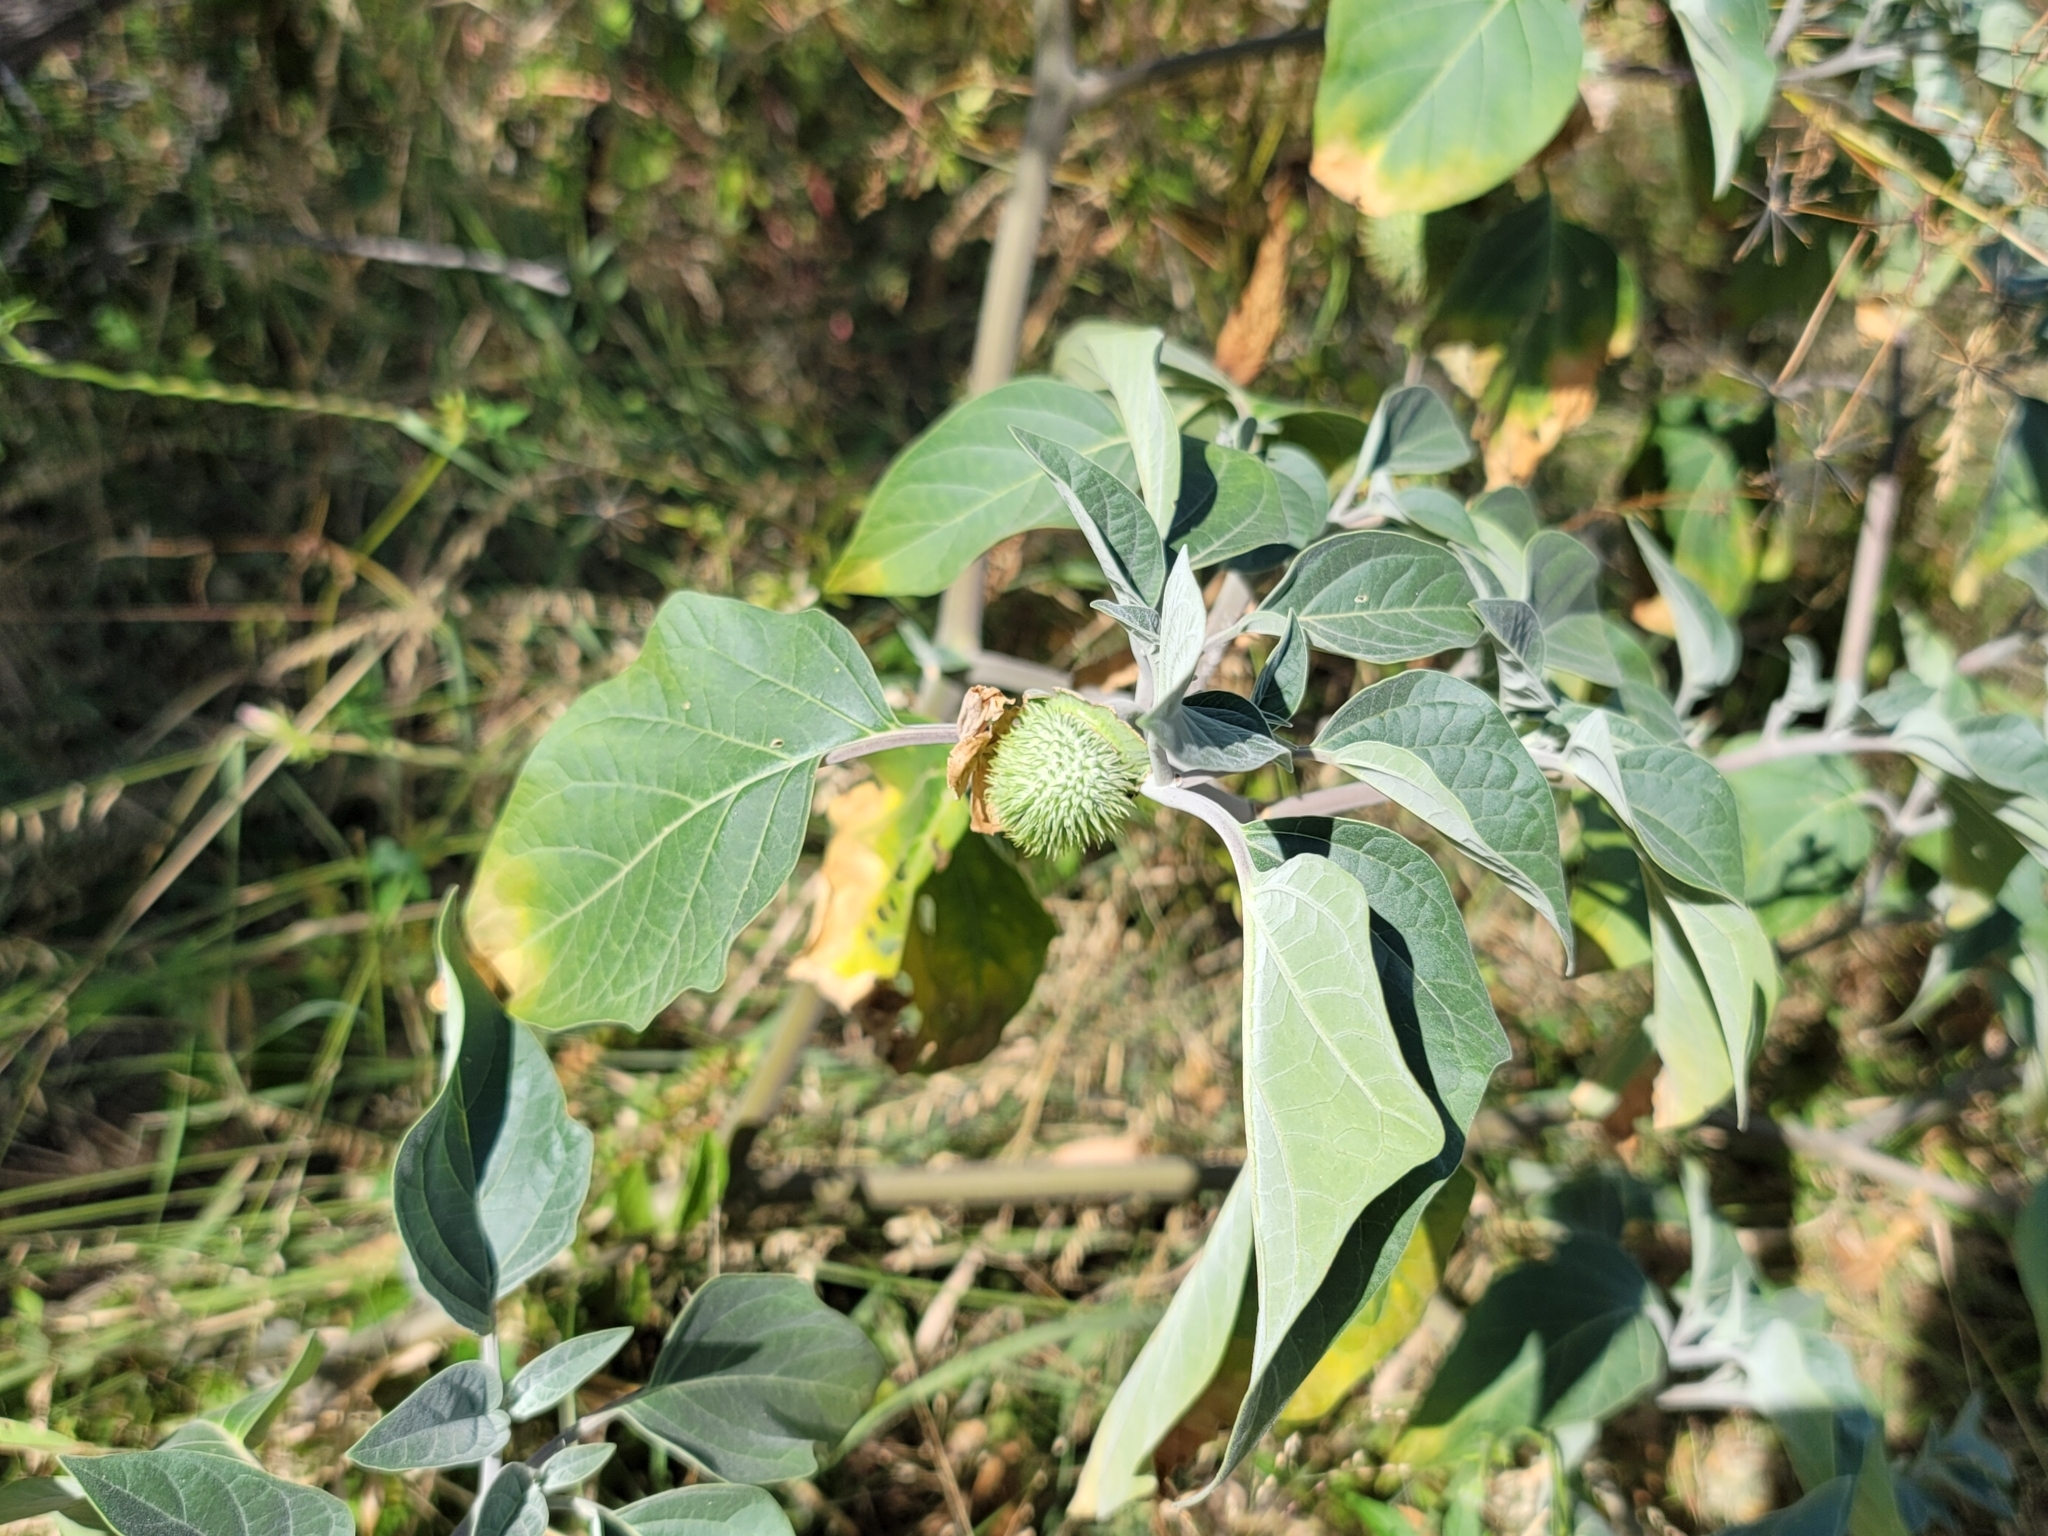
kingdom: Plantae
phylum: Tracheophyta
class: Magnoliopsida
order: Solanales
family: Solanaceae
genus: Datura
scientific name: Datura wrightii
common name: Sacred thorn-apple
